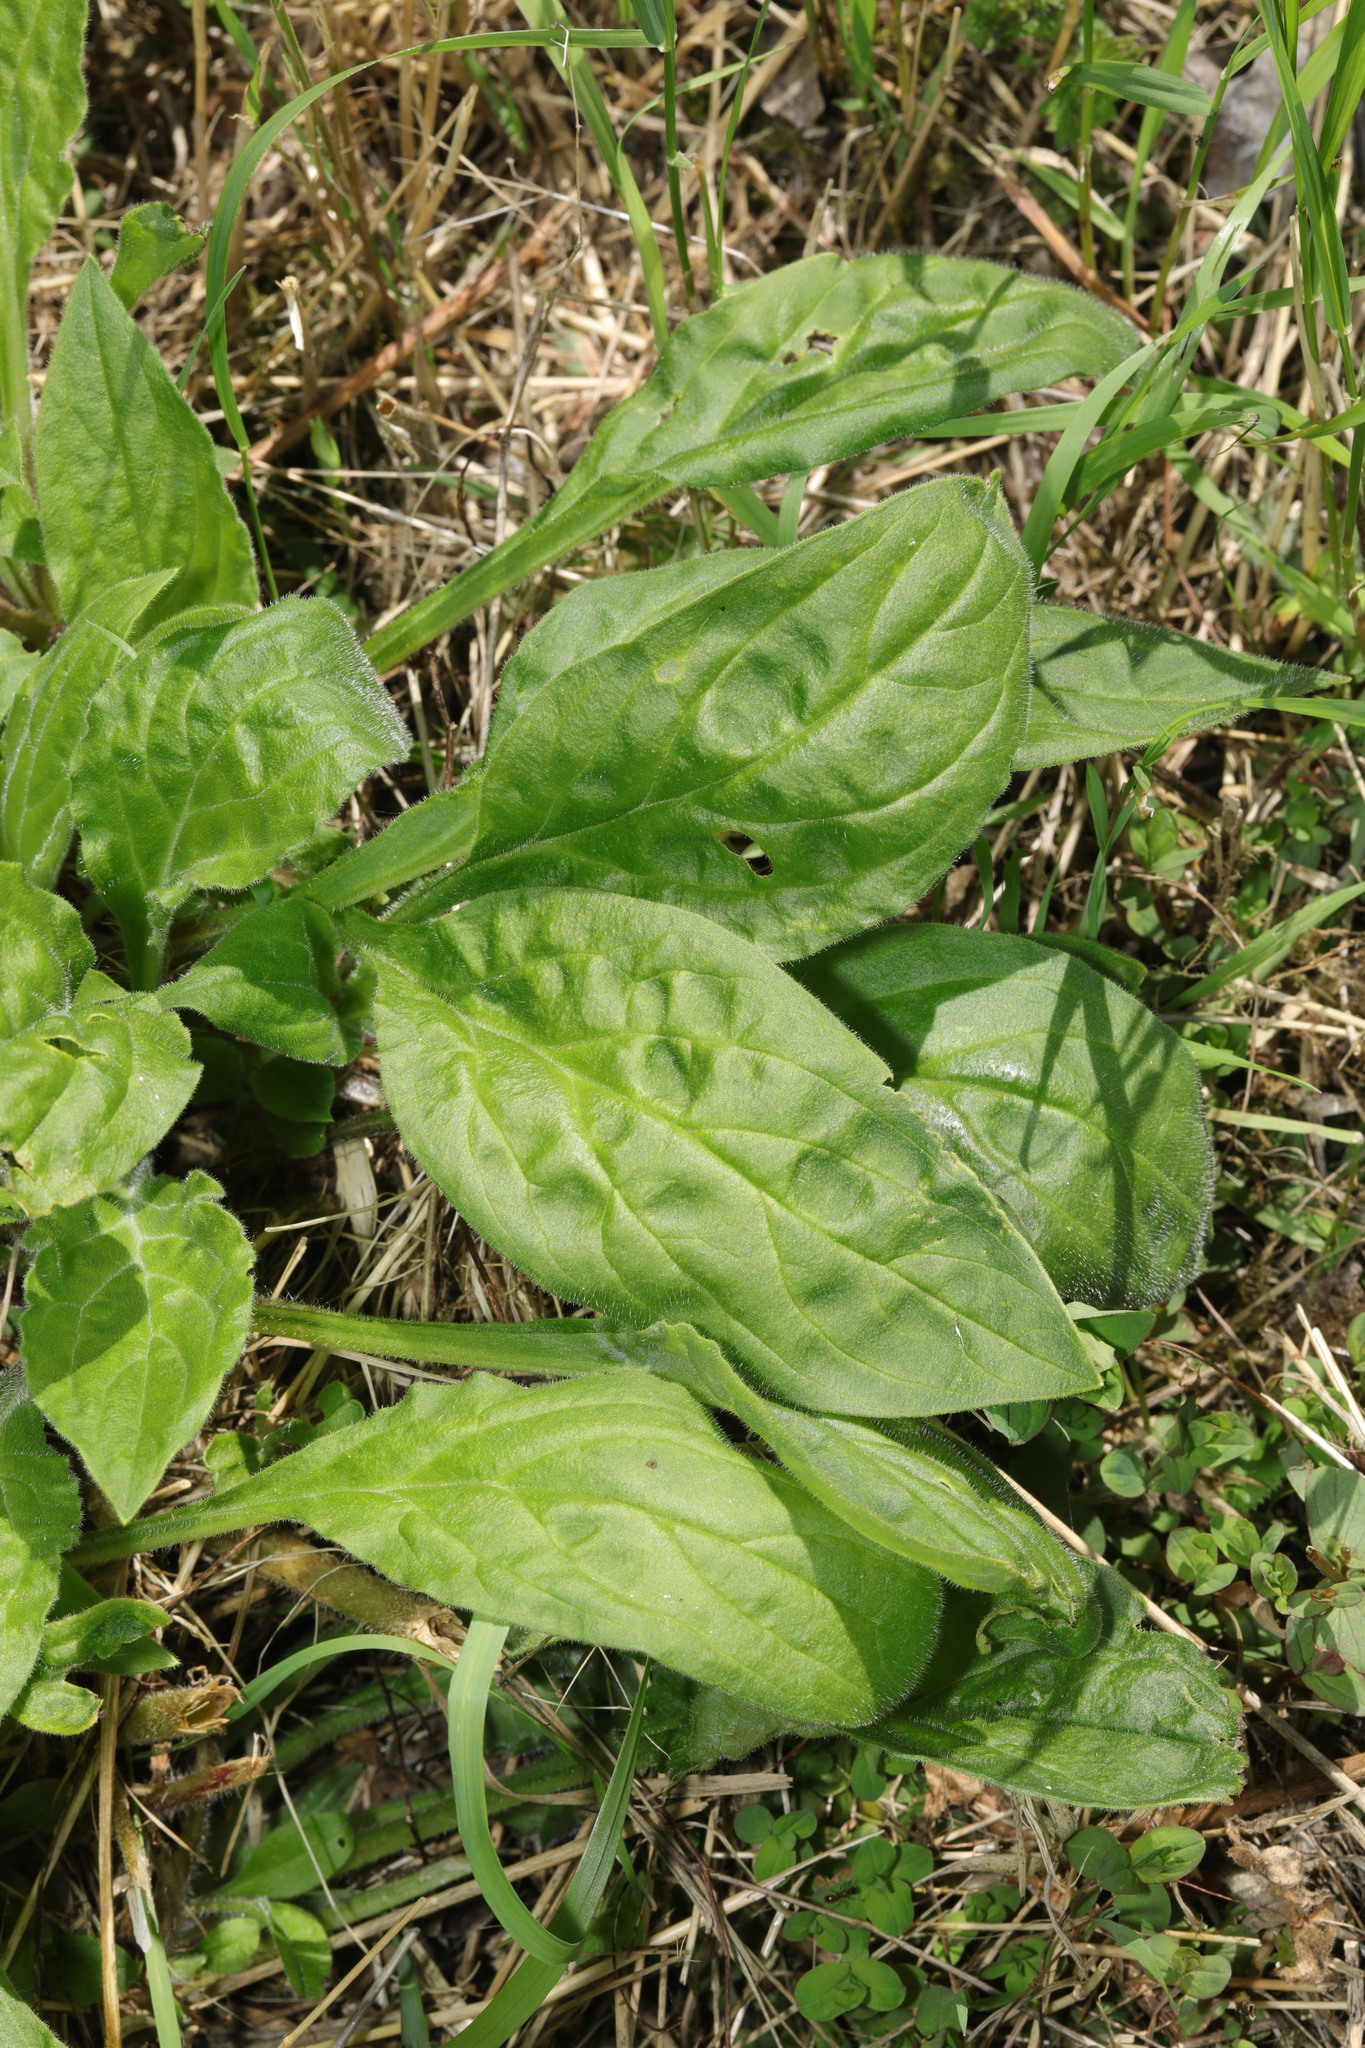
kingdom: Plantae
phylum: Tracheophyta
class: Magnoliopsida
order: Caryophyllales
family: Caryophyllaceae
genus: Silene
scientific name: Silene dioica
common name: Red campion
